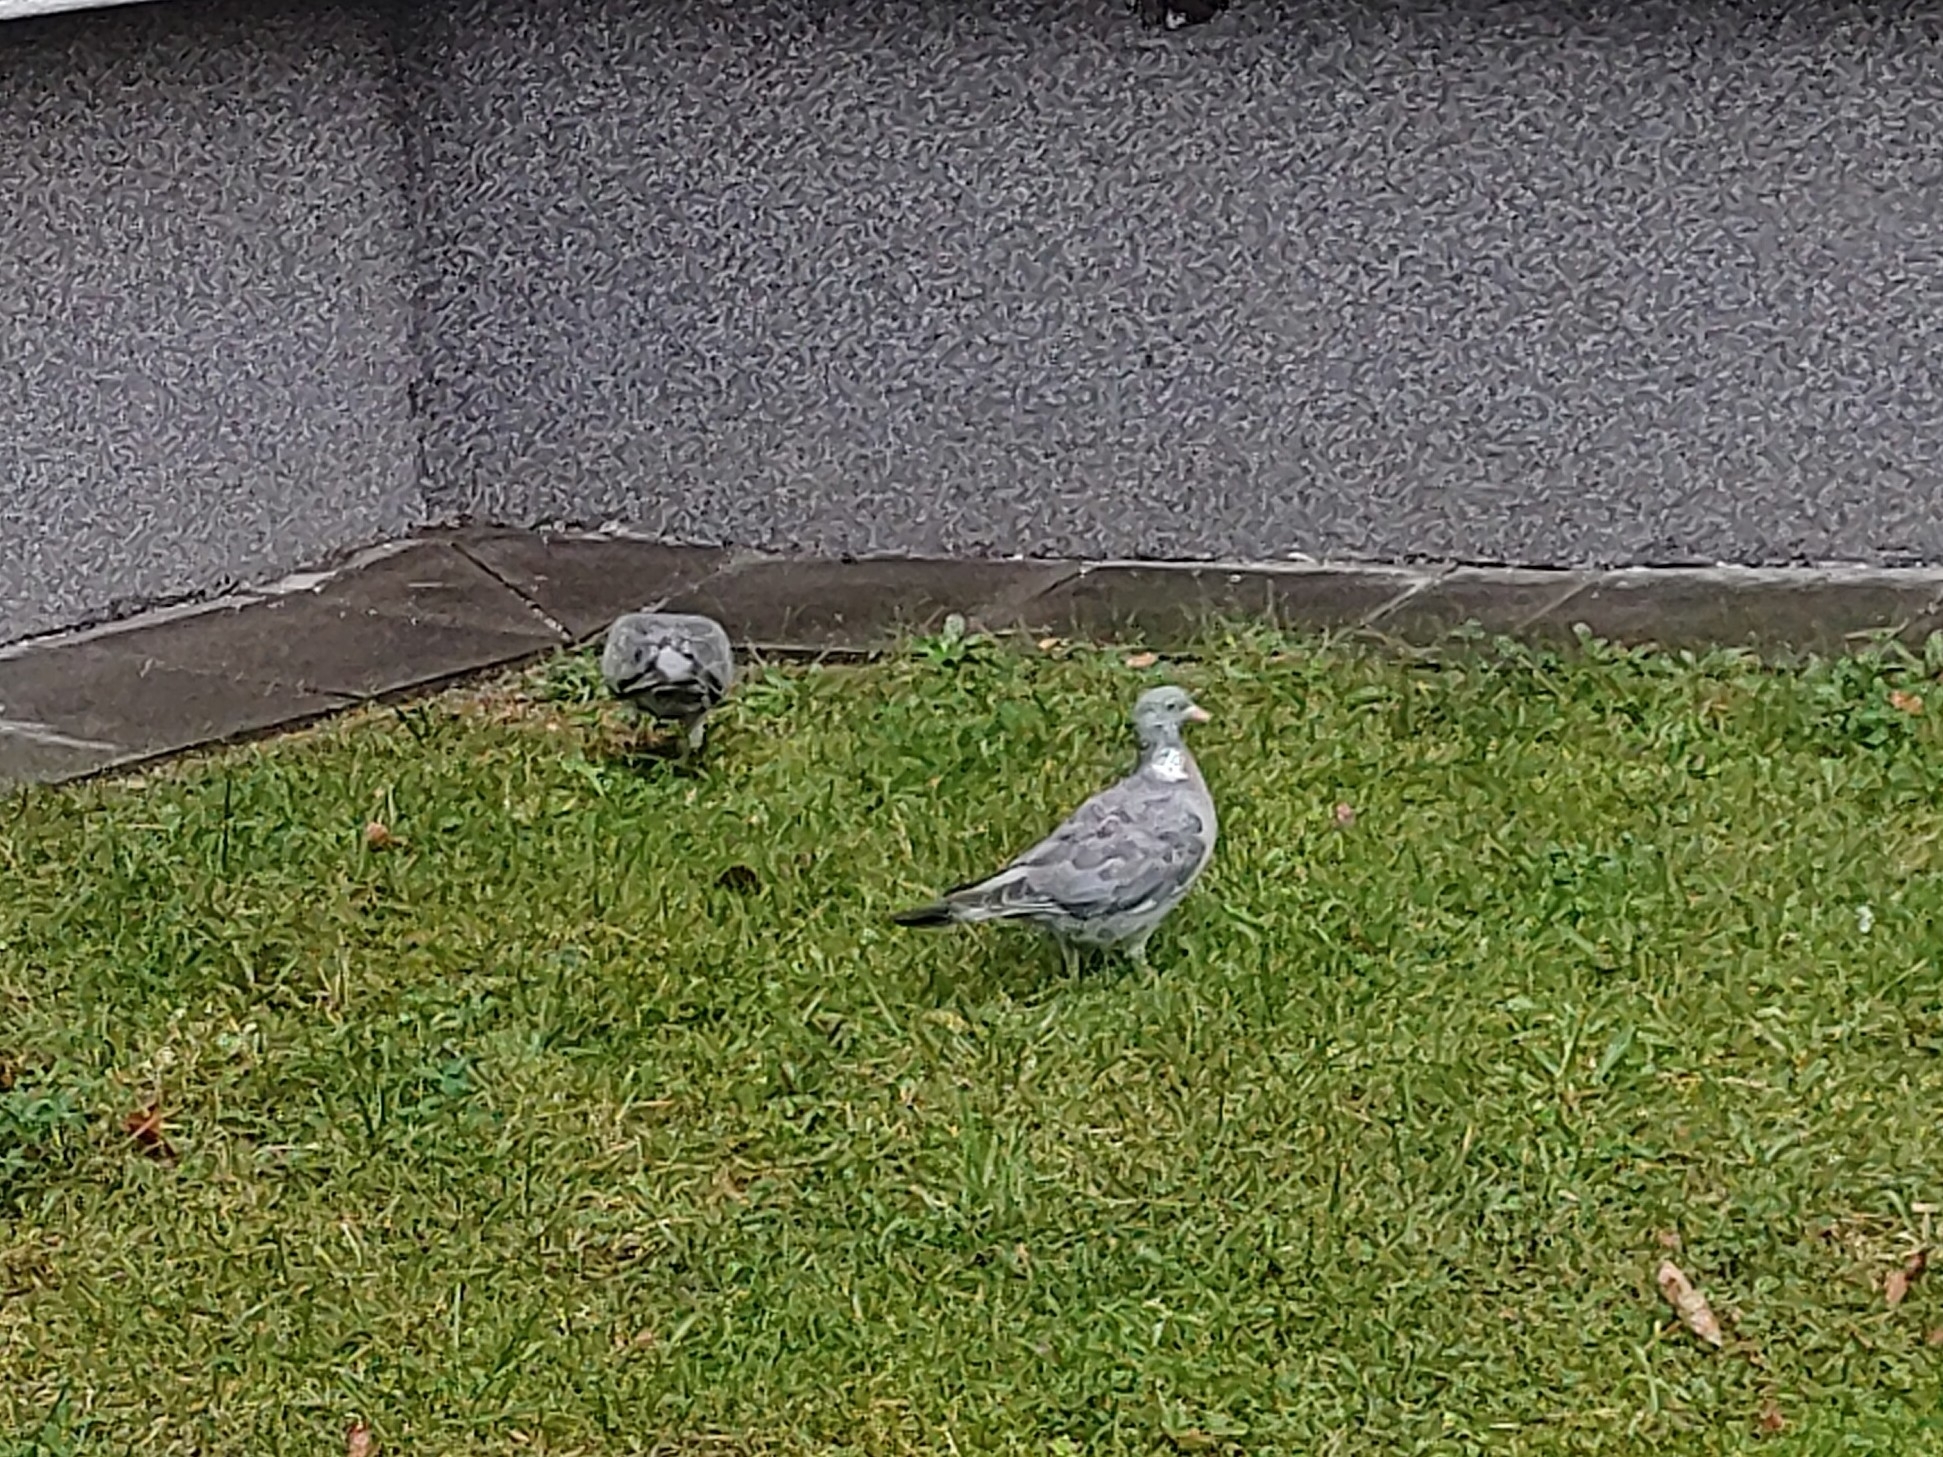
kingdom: Animalia
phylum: Chordata
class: Aves
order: Columbiformes
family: Columbidae
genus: Columba
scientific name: Columba palumbus
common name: Common wood pigeon
